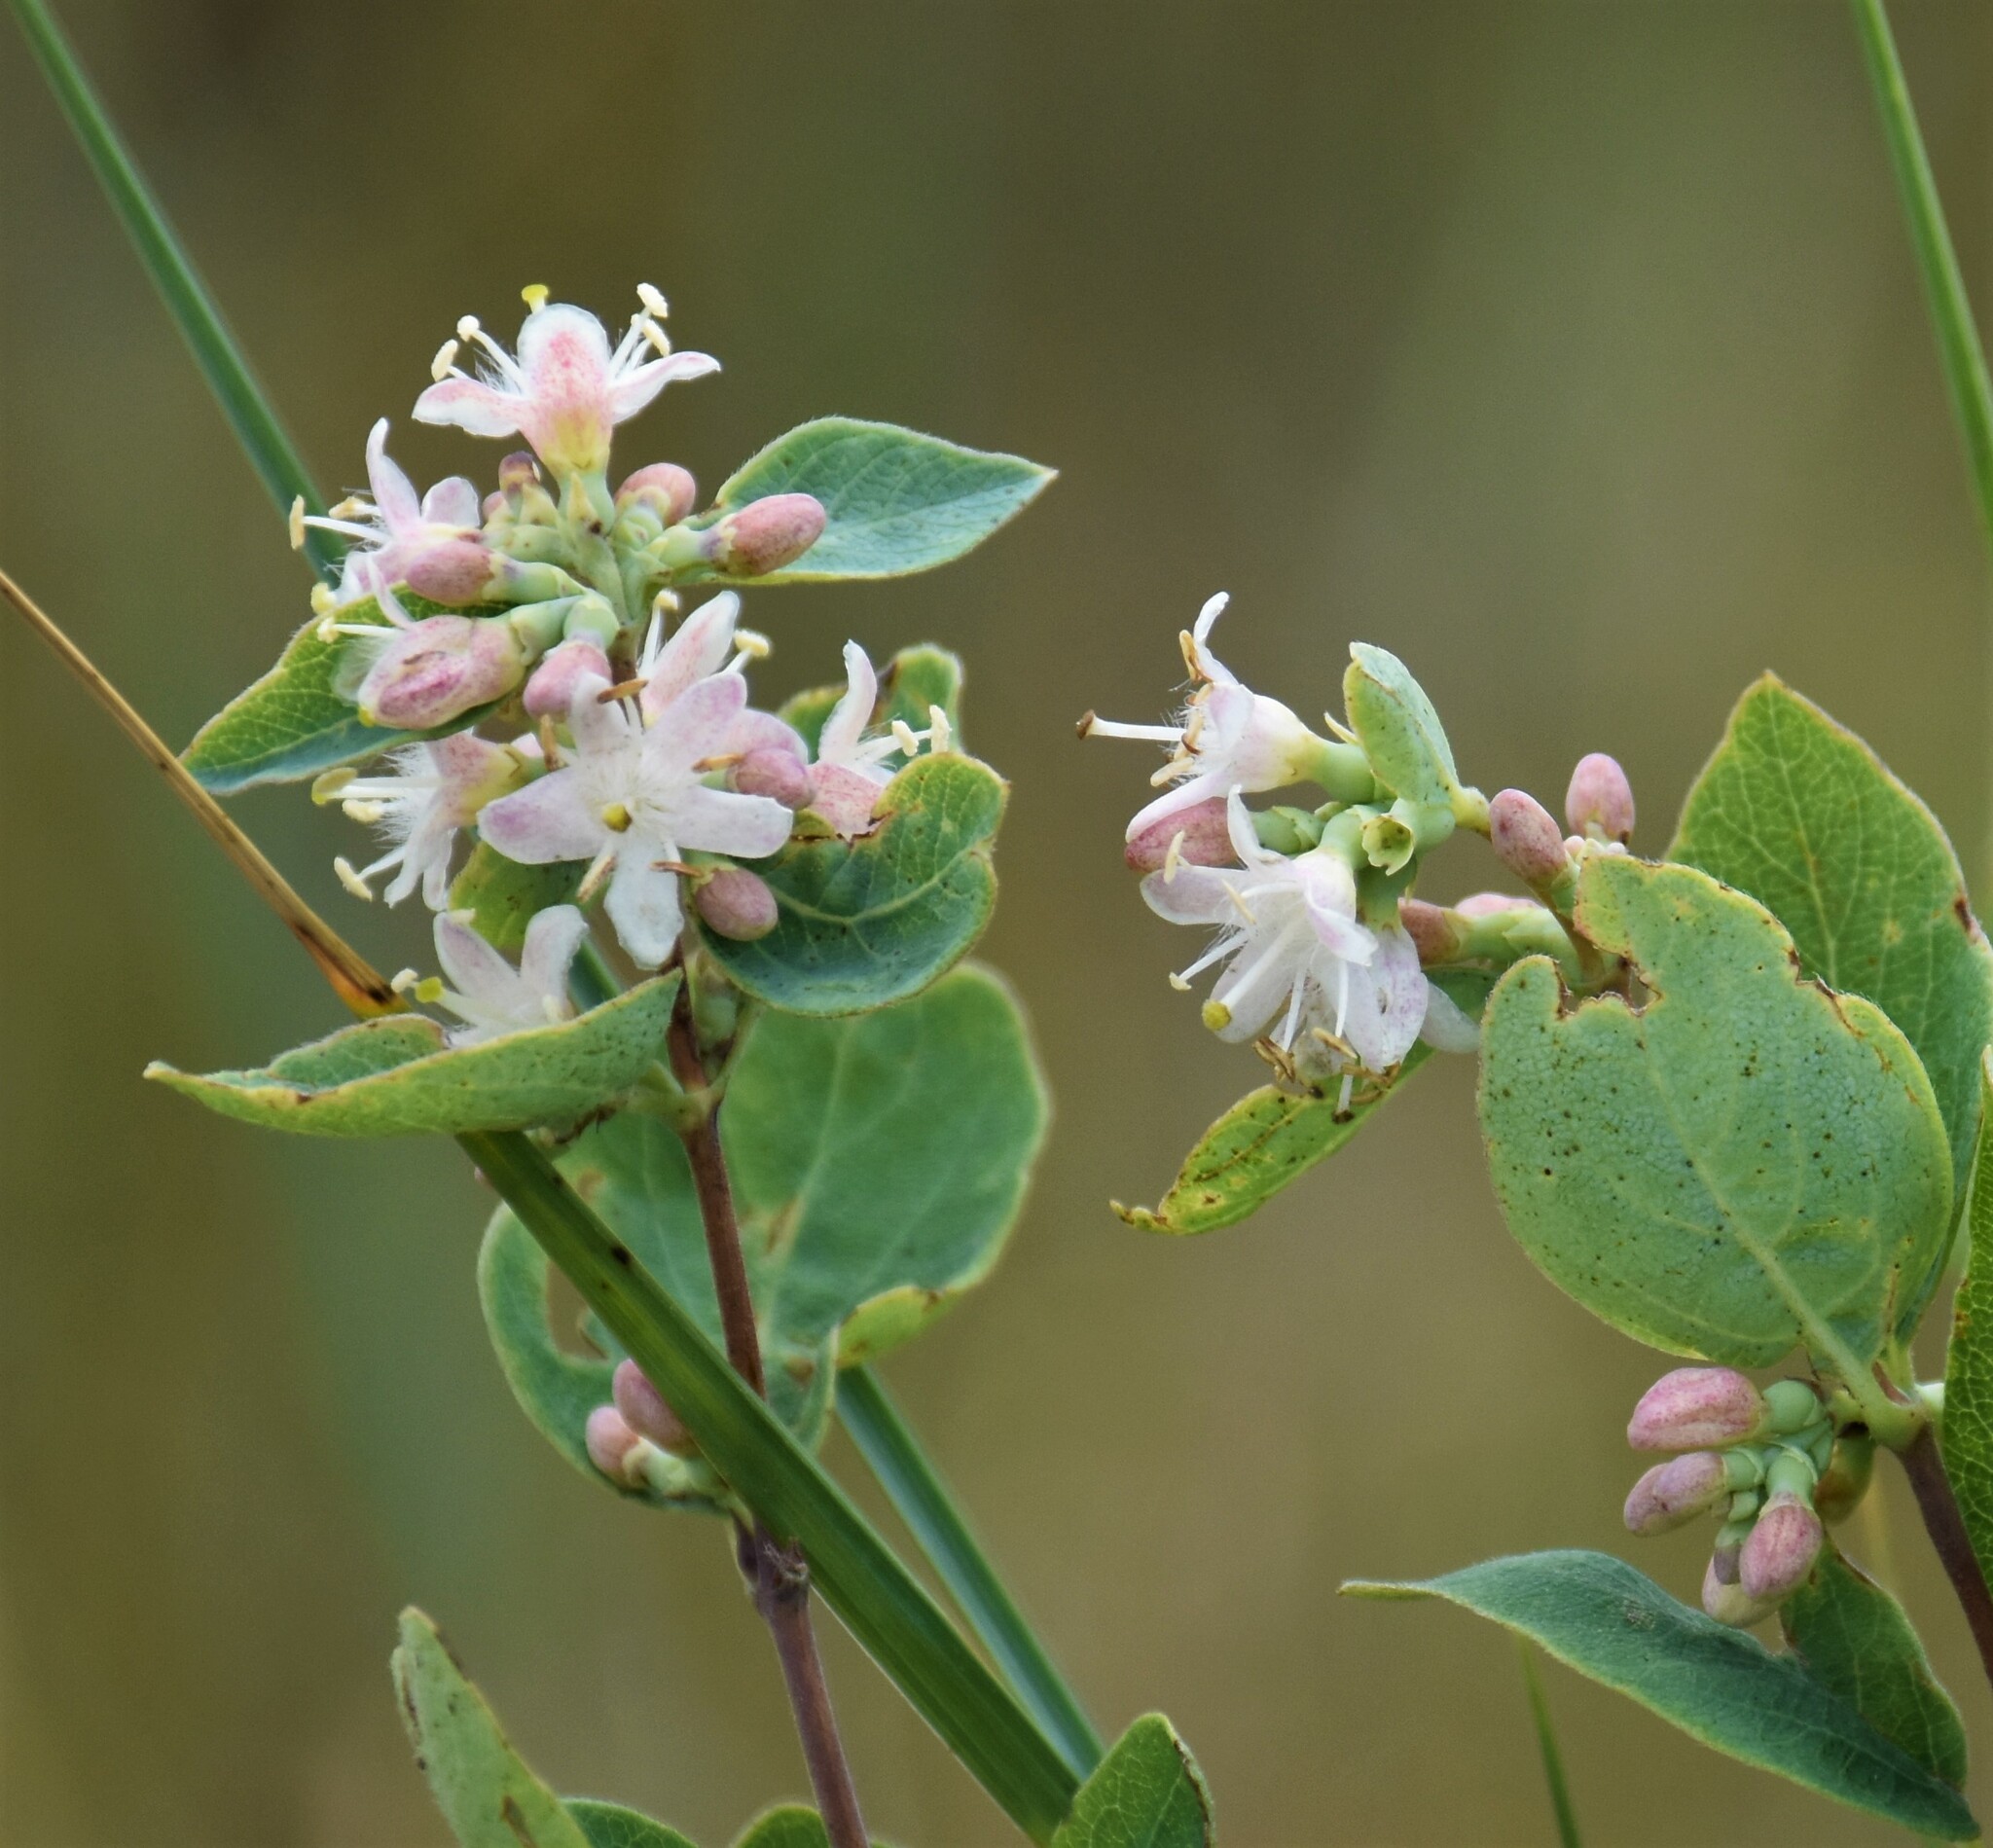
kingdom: Plantae
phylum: Tracheophyta
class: Magnoliopsida
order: Dipsacales
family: Caprifoliaceae
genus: Symphoricarpos
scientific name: Symphoricarpos occidentalis
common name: Wolfberry
